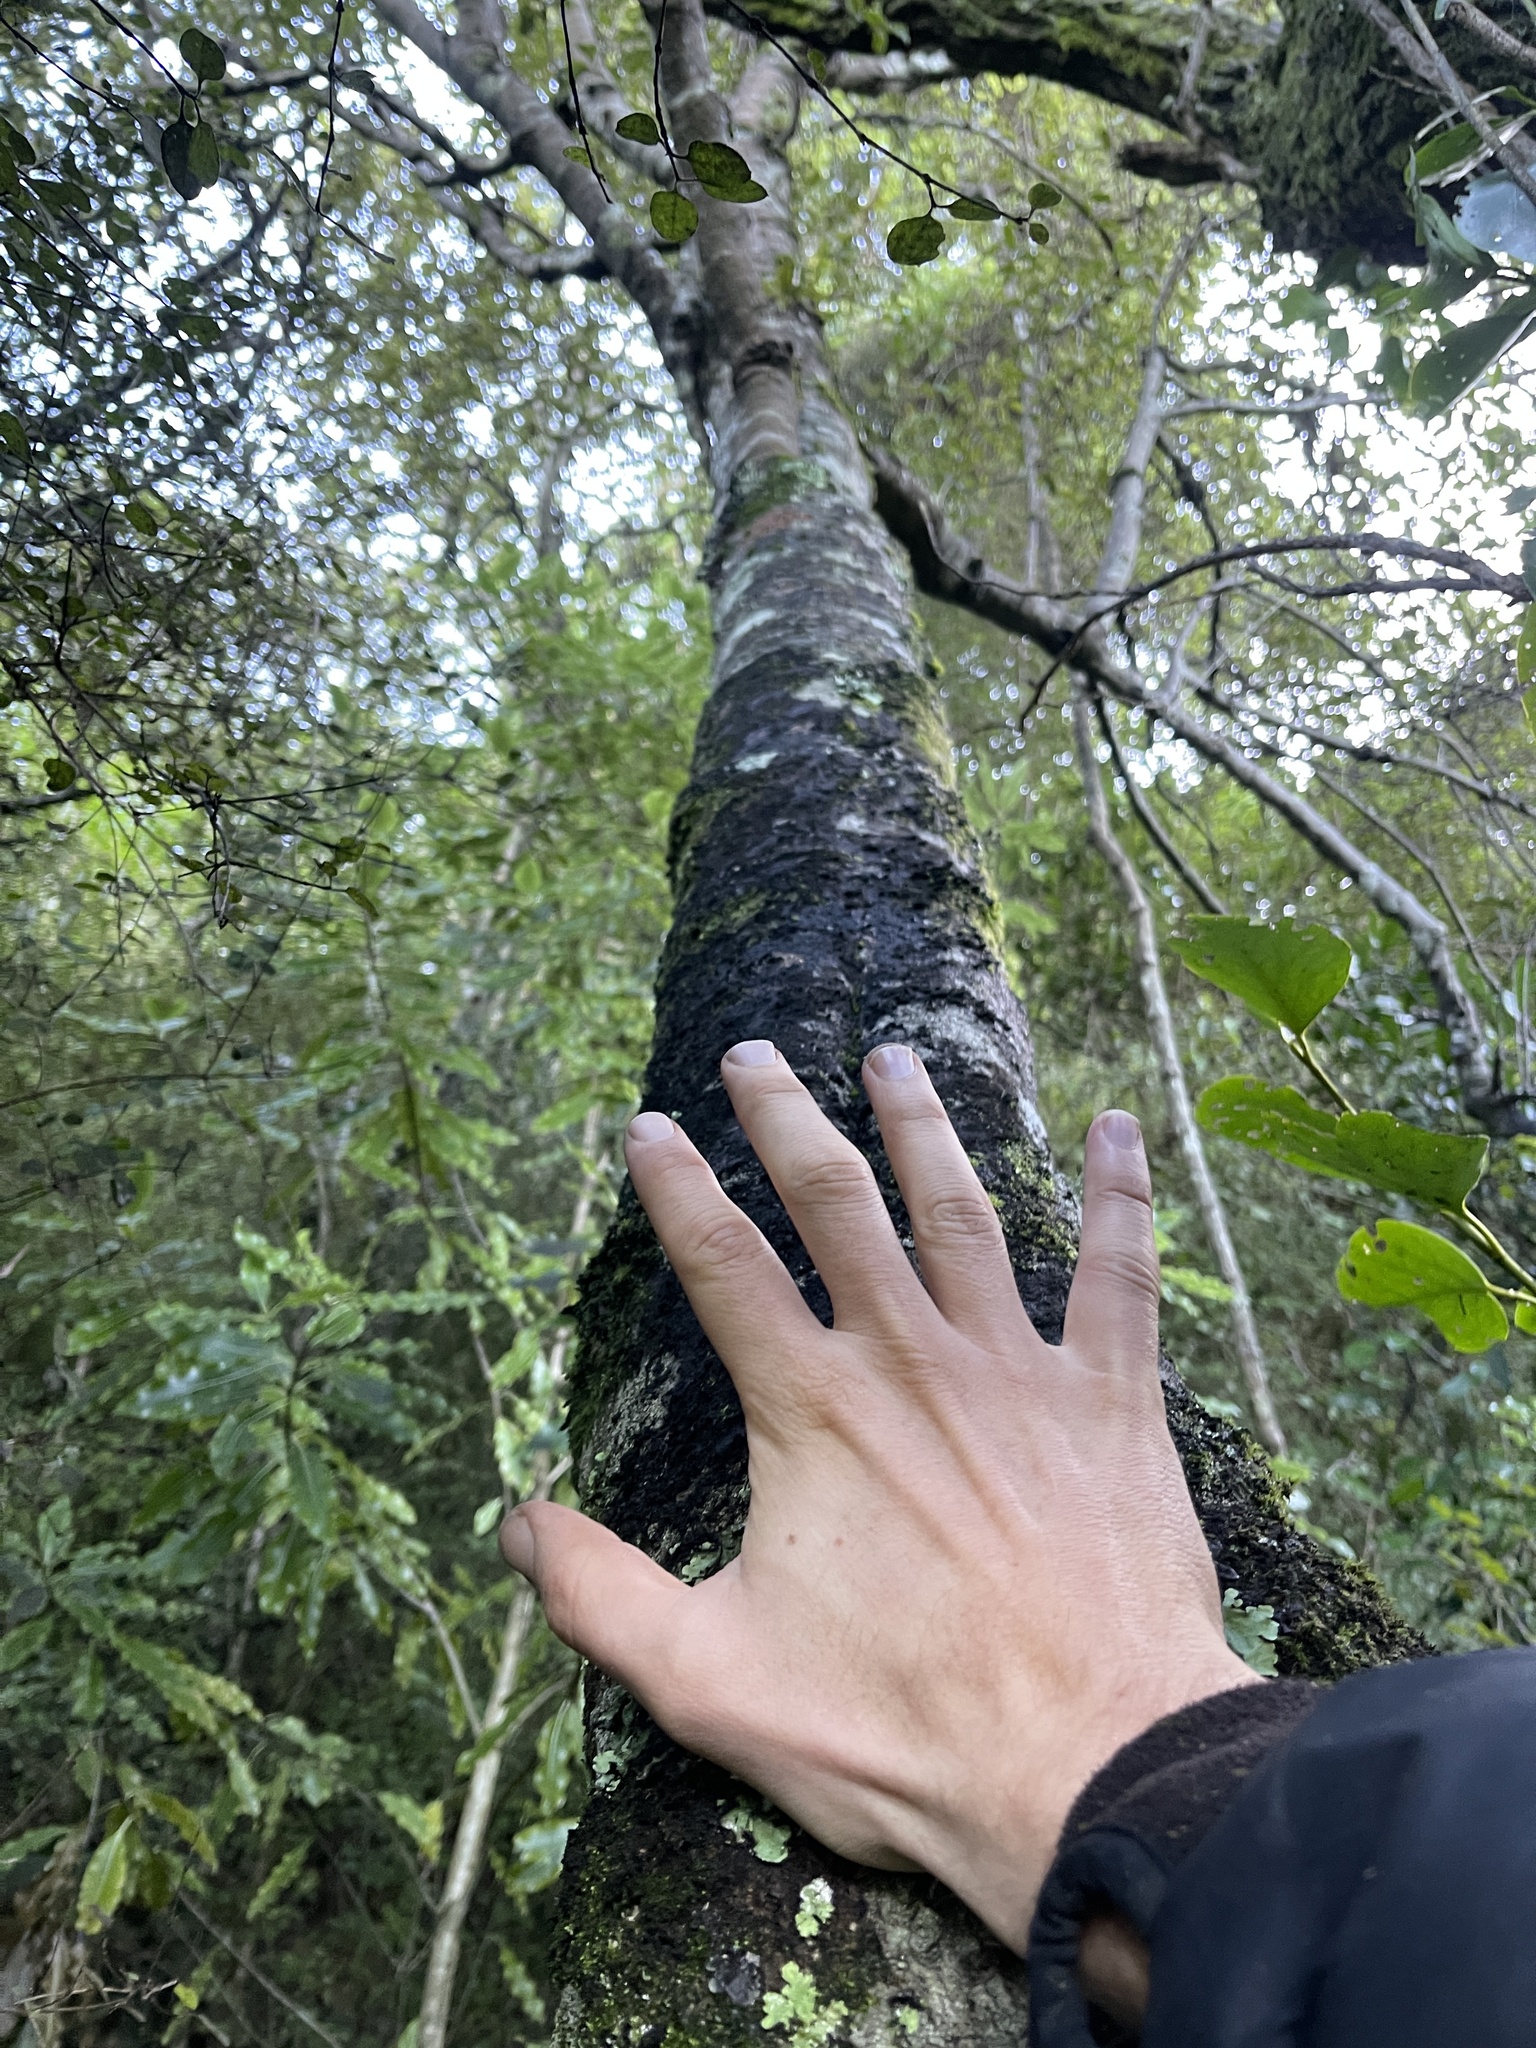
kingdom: Plantae
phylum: Tracheophyta
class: Magnoliopsida
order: Ericales
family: Primulaceae
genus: Myrsine
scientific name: Myrsine australis
